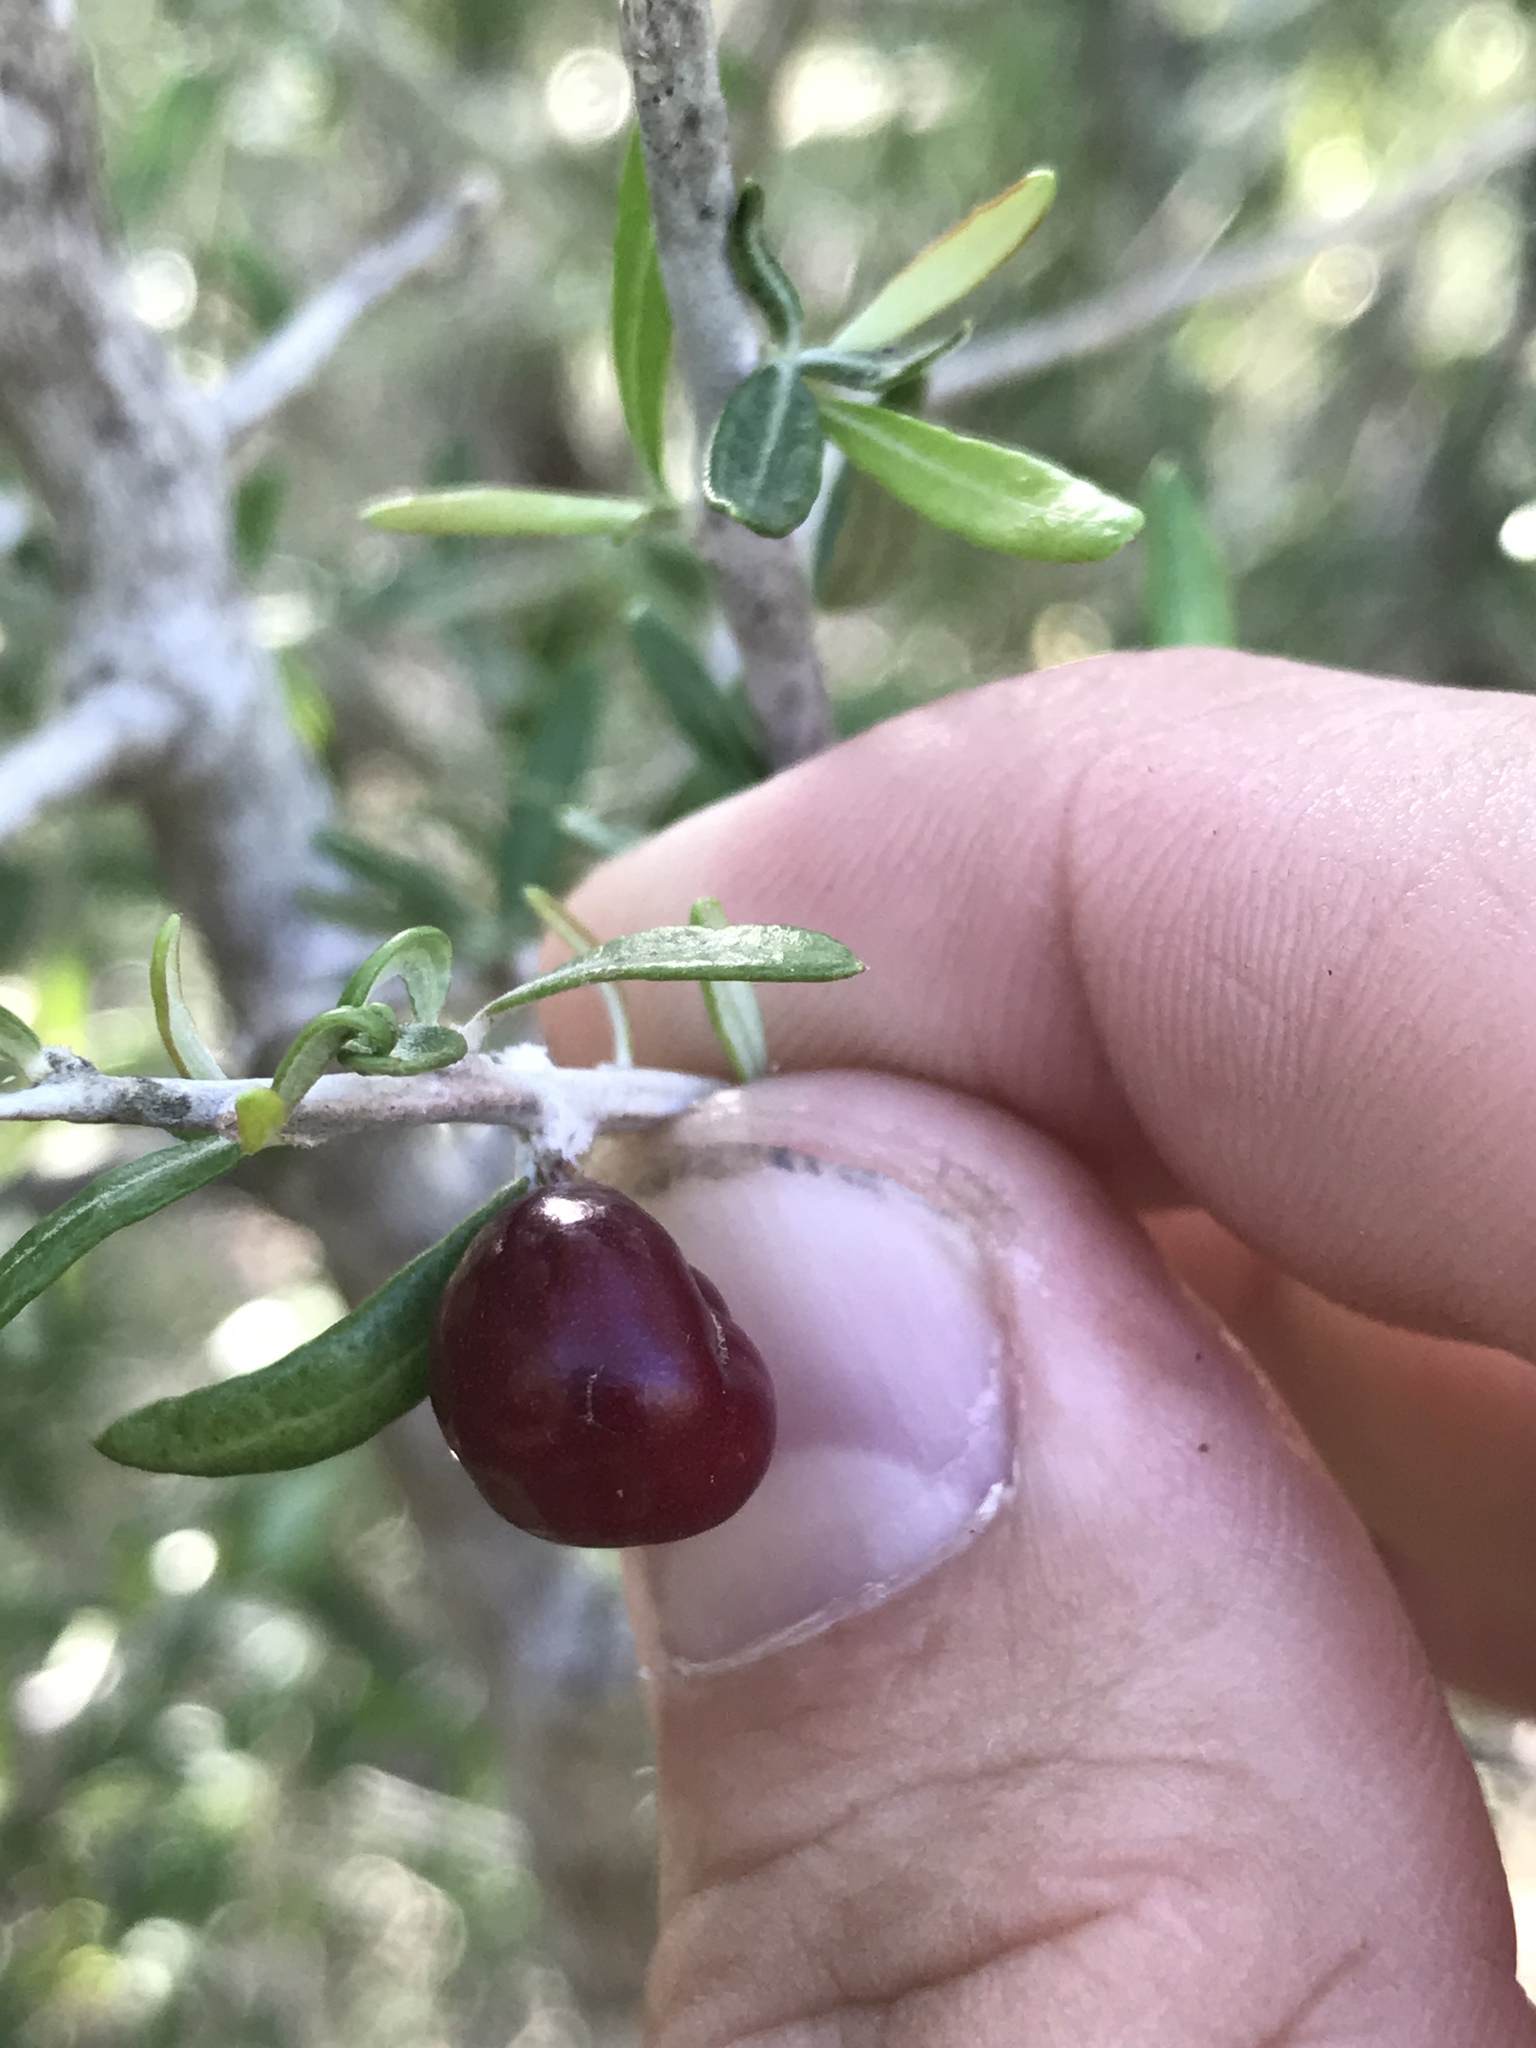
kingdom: Plantae
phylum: Tracheophyta
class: Magnoliopsida
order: Sapindales
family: Simaroubaceae
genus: Castela
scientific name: Castela erecta
